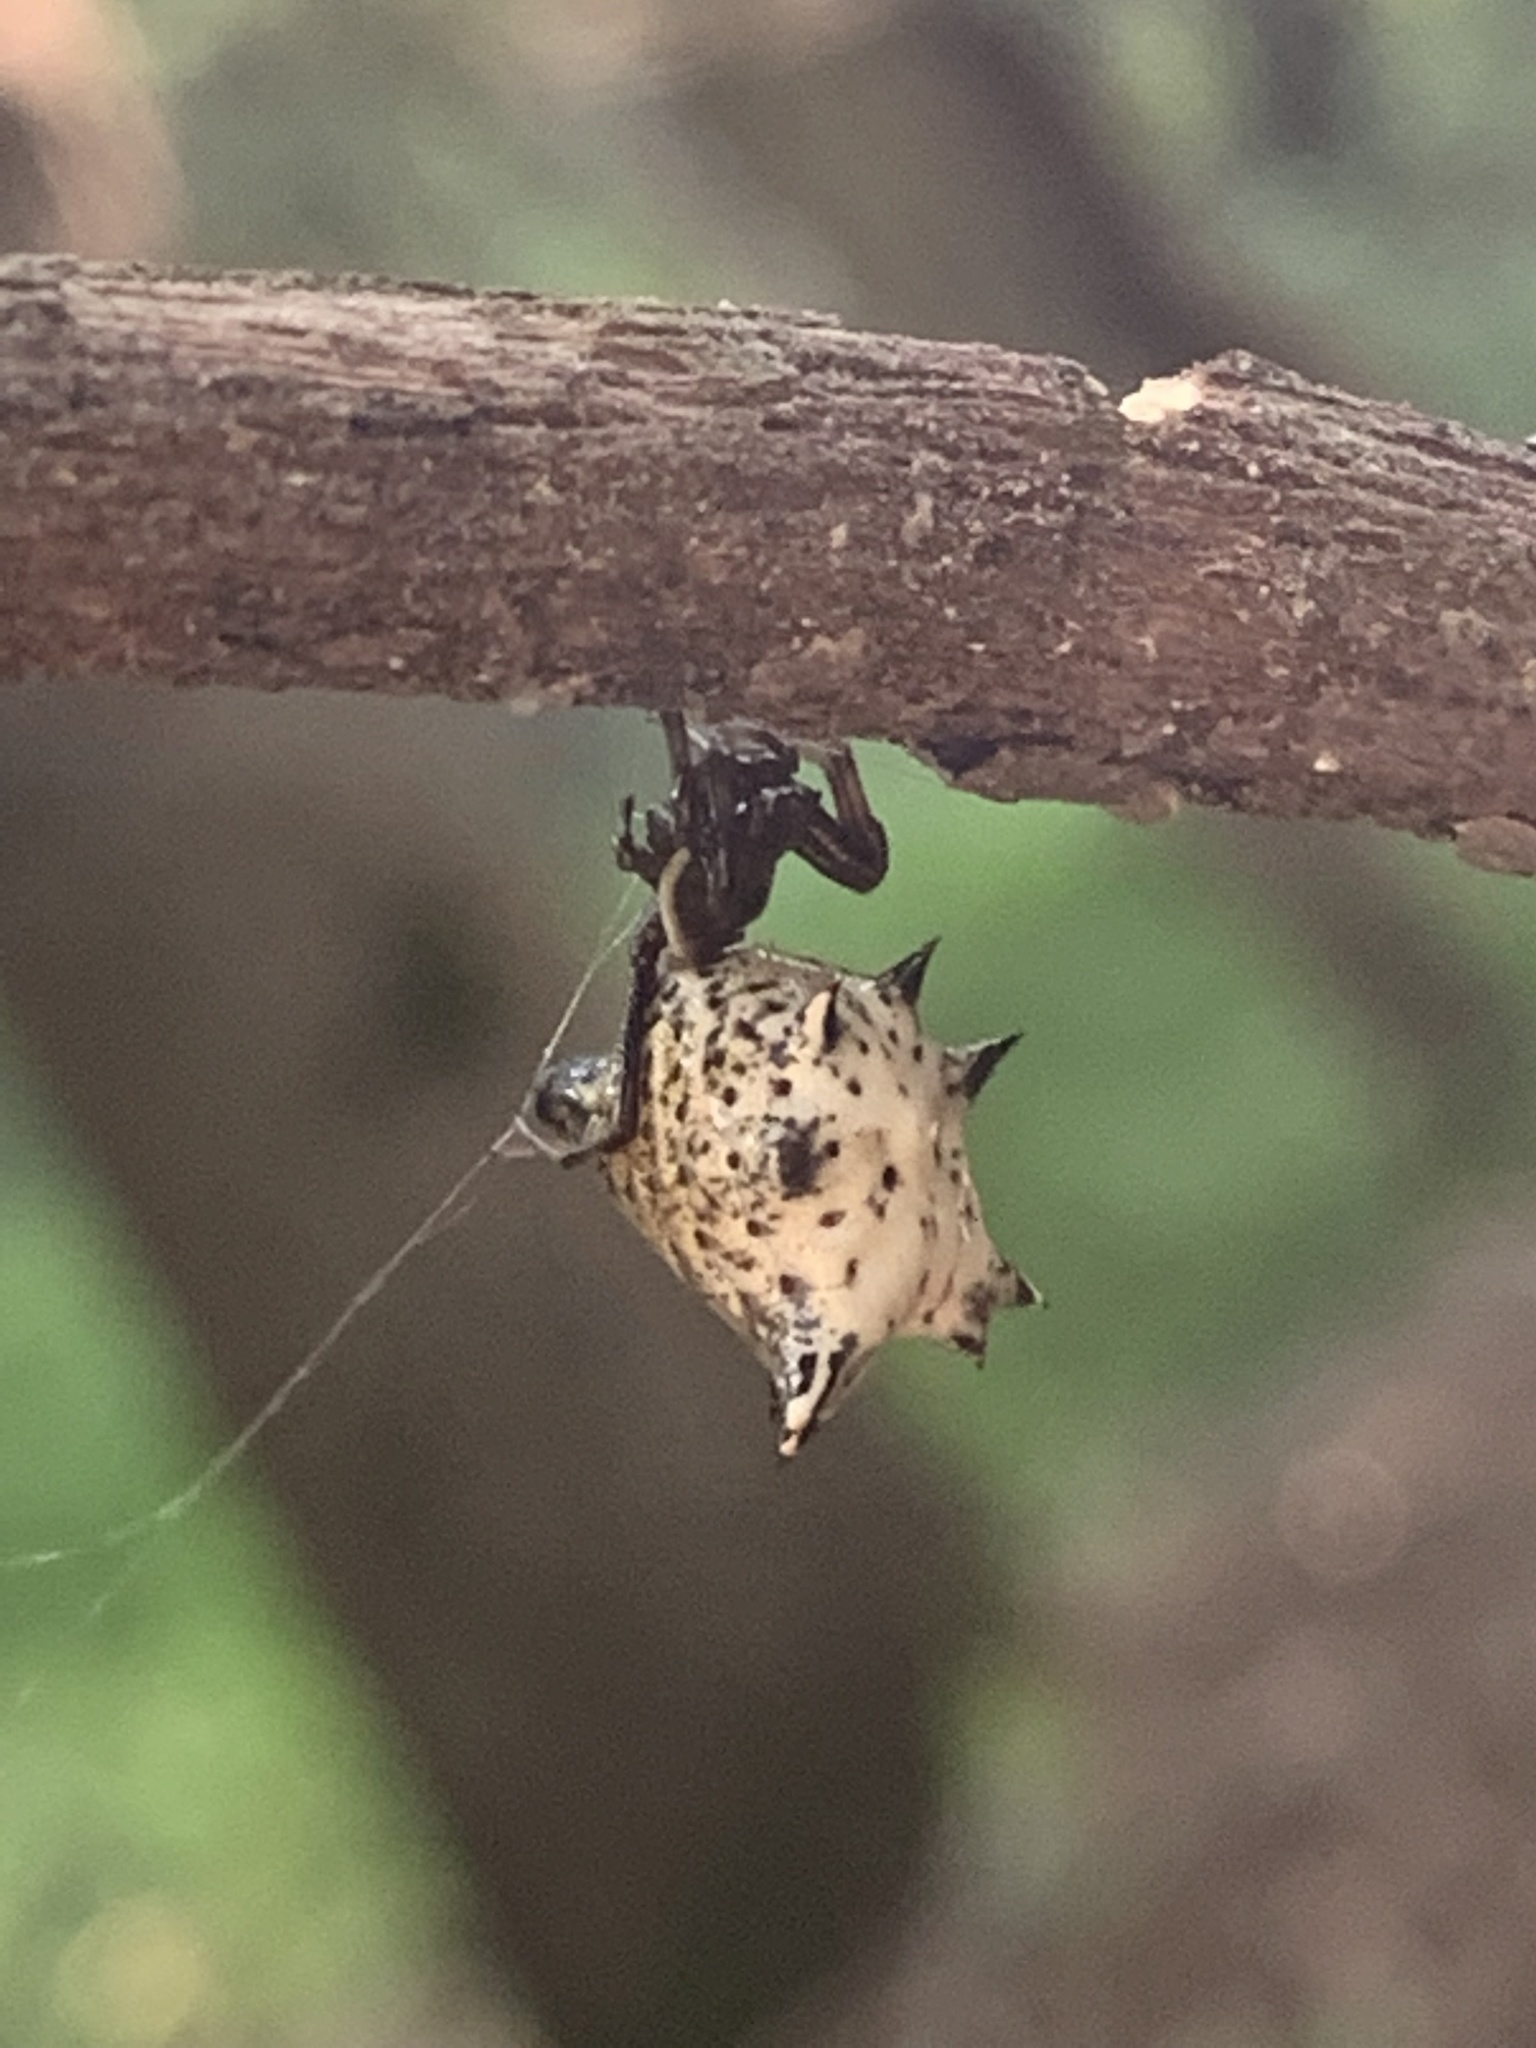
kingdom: Animalia
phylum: Arthropoda
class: Arachnida
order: Araneae
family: Araneidae
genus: Micrathena
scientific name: Micrathena gracilis
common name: Orb weavers
